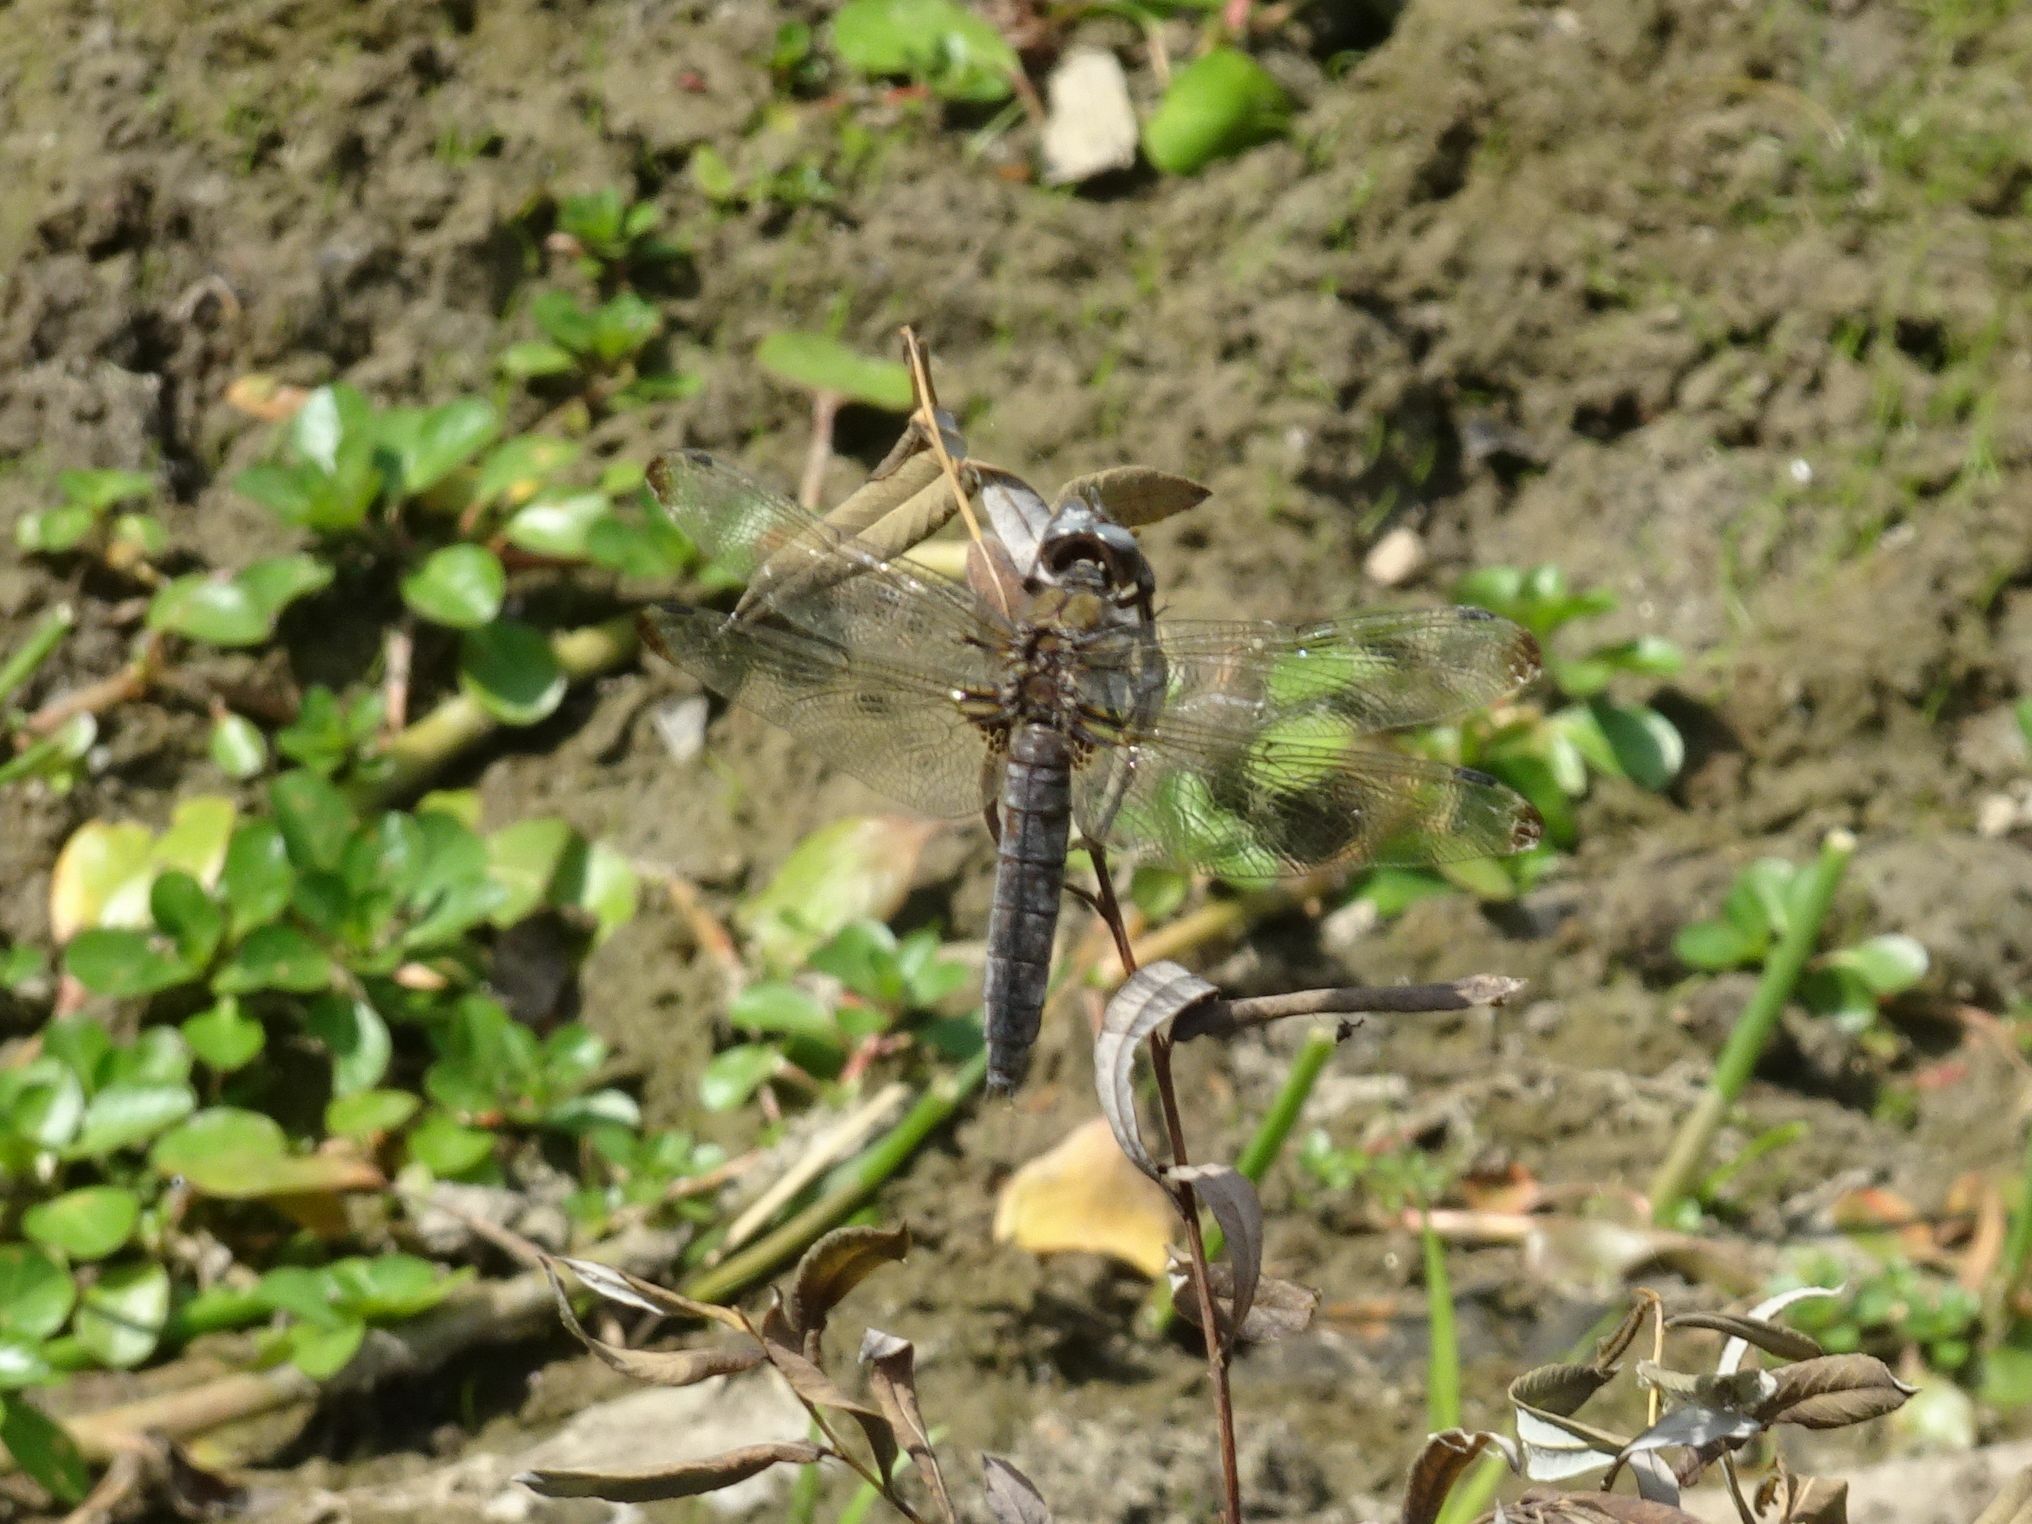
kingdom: Animalia
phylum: Arthropoda
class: Insecta
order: Odonata
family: Libellulidae
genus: Libellula
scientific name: Libellula fulva
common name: Blue chaser
